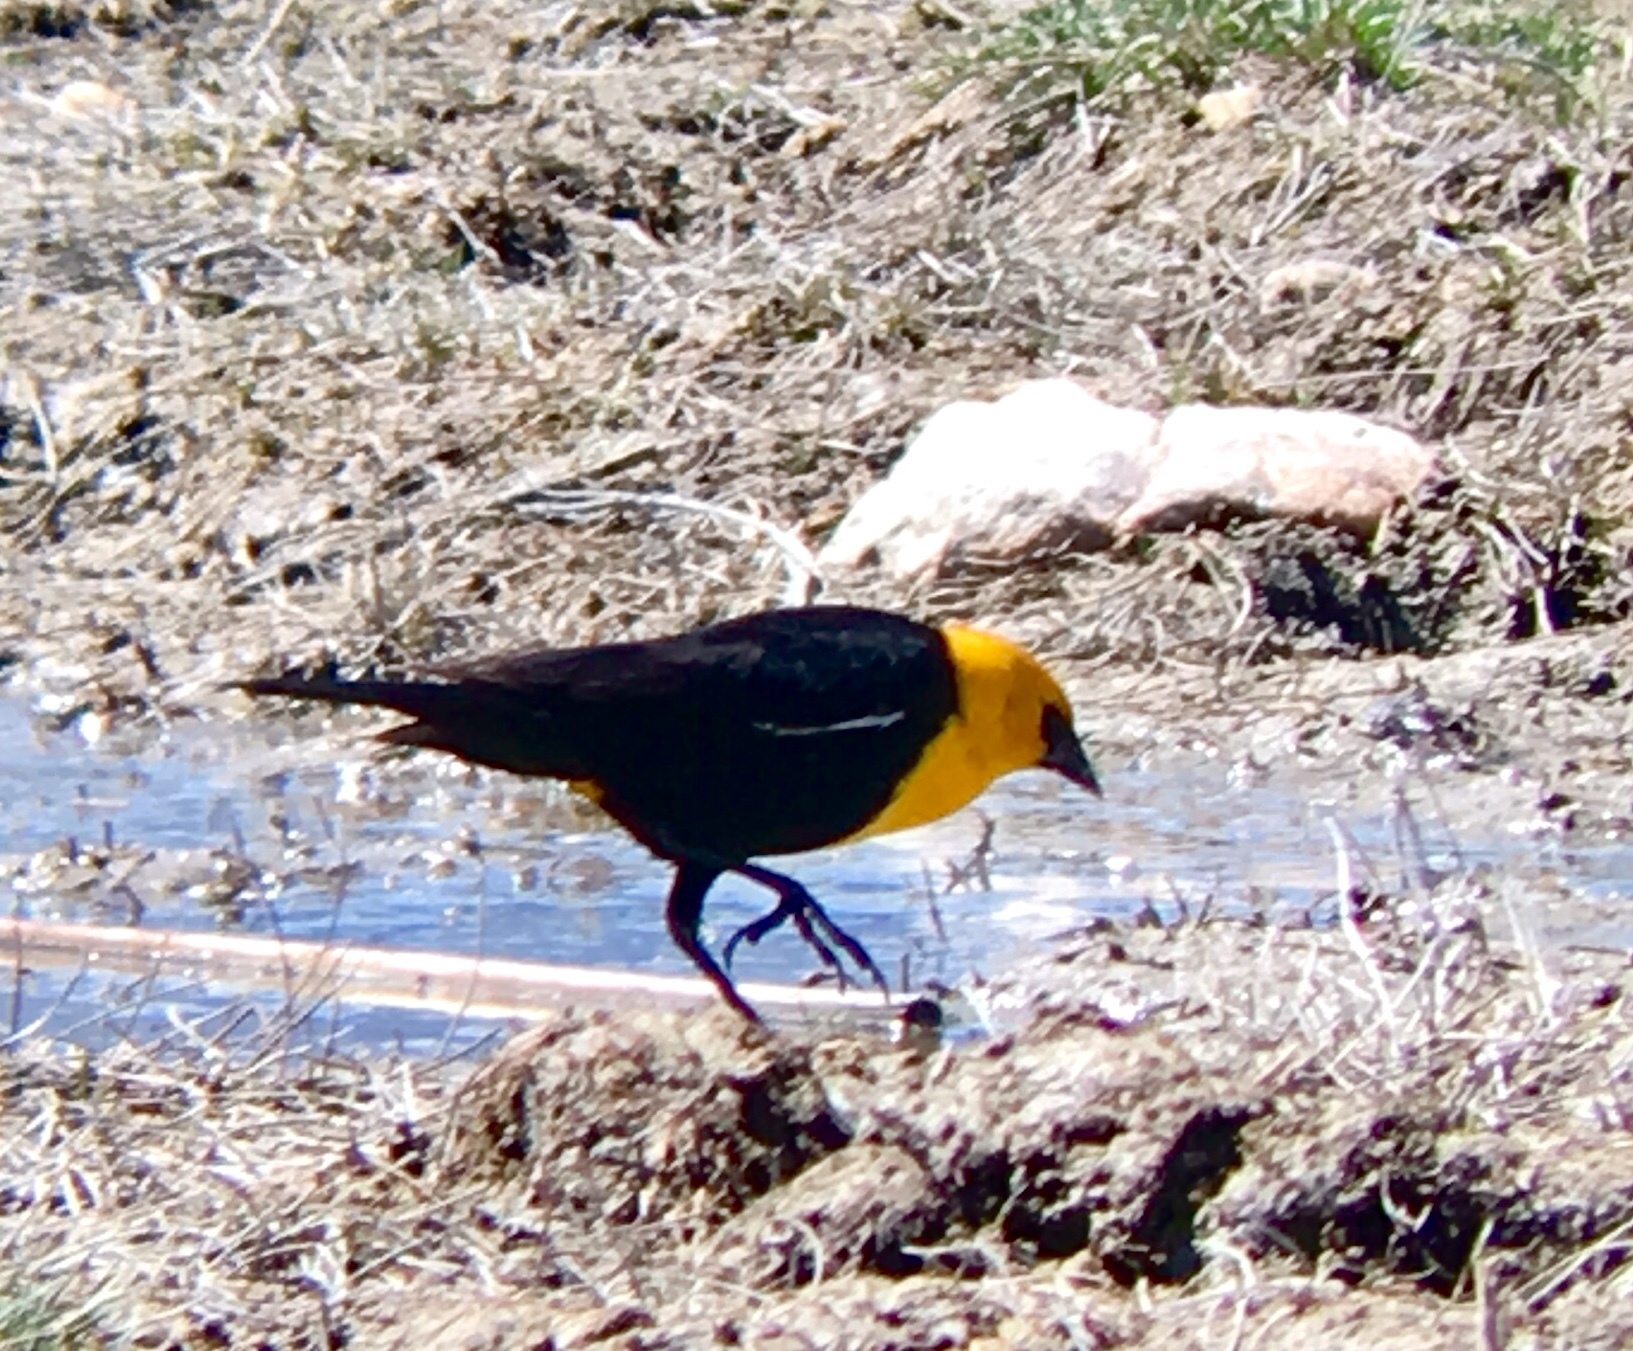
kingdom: Animalia
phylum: Chordata
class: Aves
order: Passeriformes
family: Icteridae
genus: Xanthocephalus
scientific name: Xanthocephalus xanthocephalus
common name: Yellow-headed blackbird
